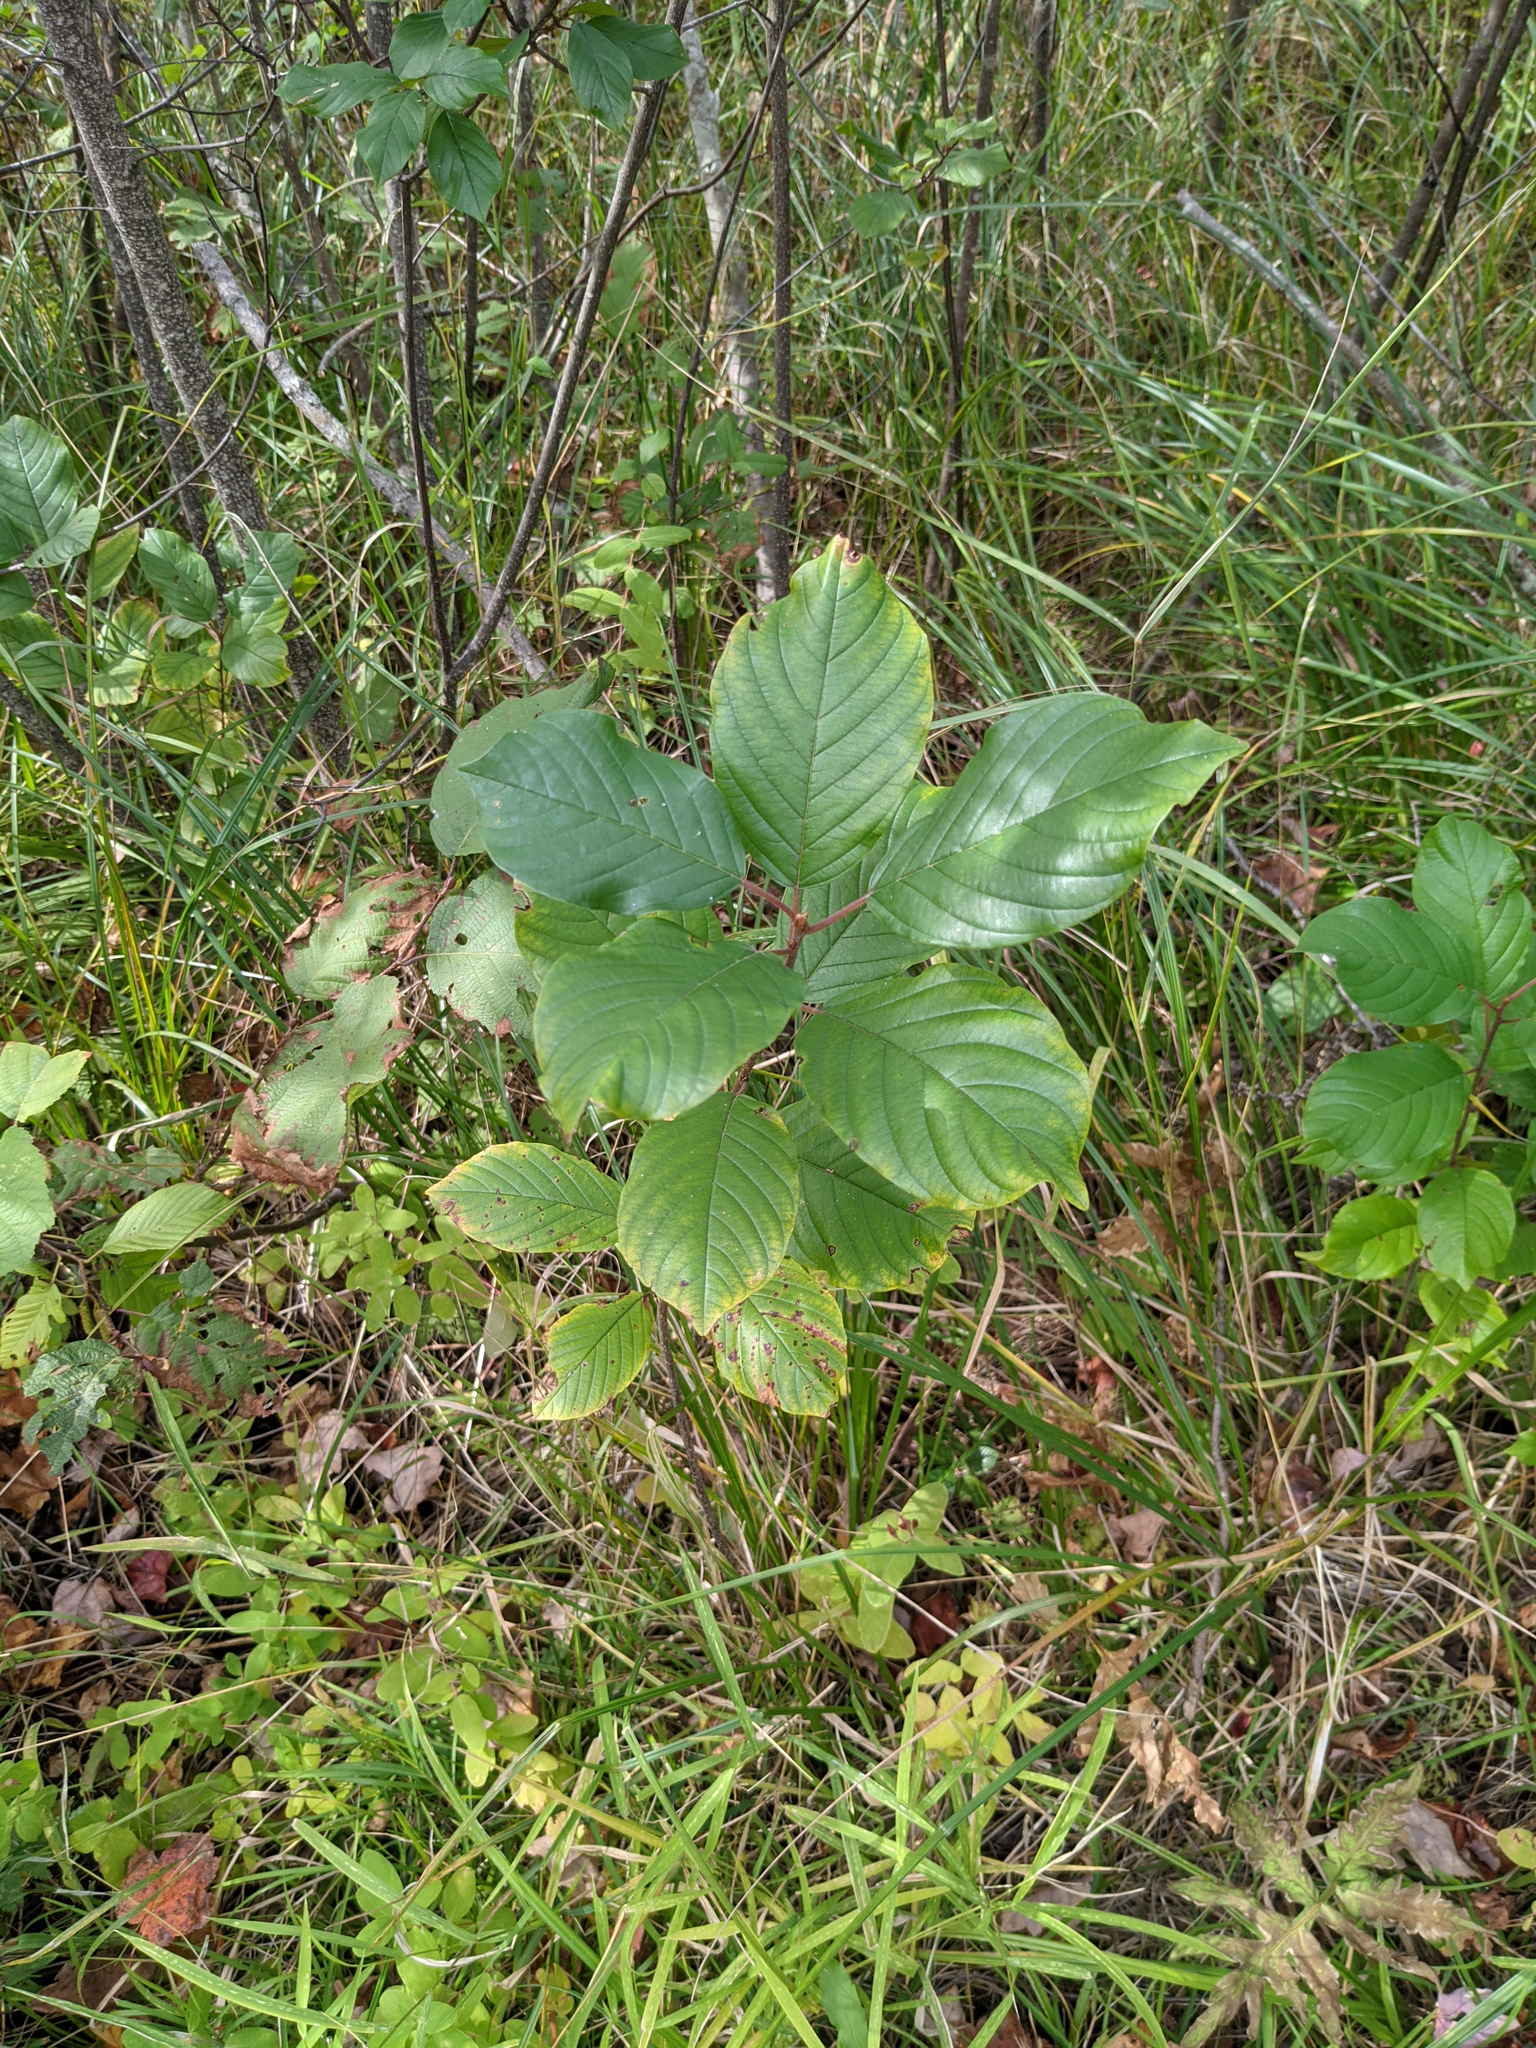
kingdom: Plantae
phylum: Tracheophyta
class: Magnoliopsida
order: Rosales
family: Rhamnaceae
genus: Frangula
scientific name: Frangula alnus
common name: Alder buckthorn
